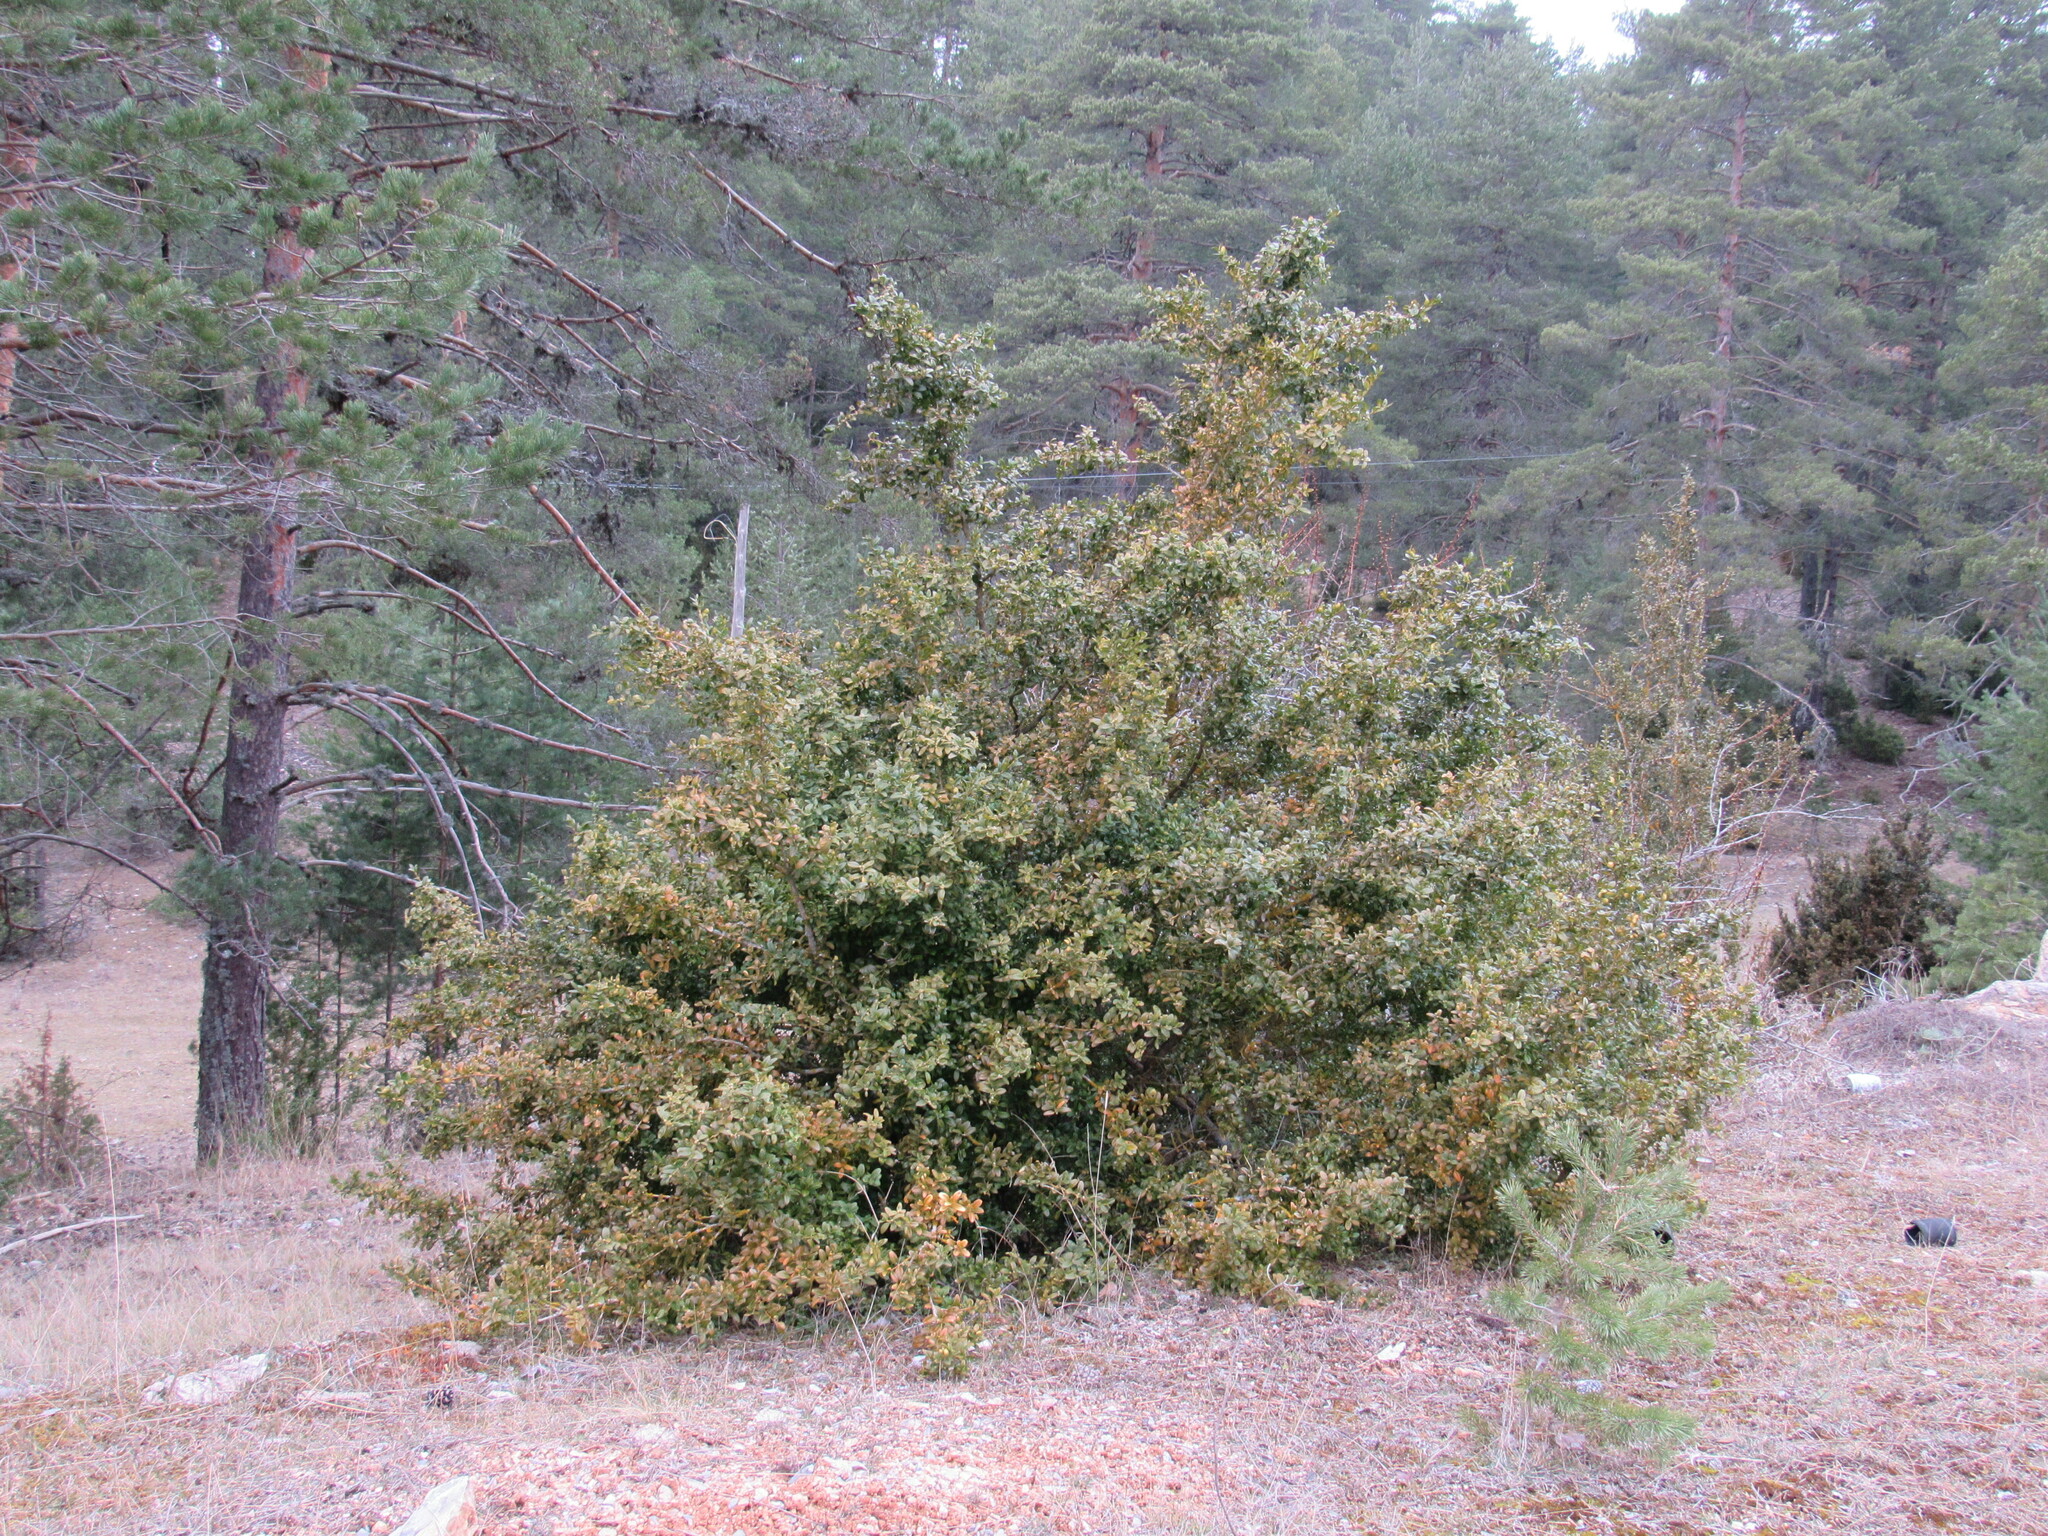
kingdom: Plantae
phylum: Tracheophyta
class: Magnoliopsida
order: Buxales
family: Buxaceae
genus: Buxus
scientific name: Buxus sempervirens
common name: Box
